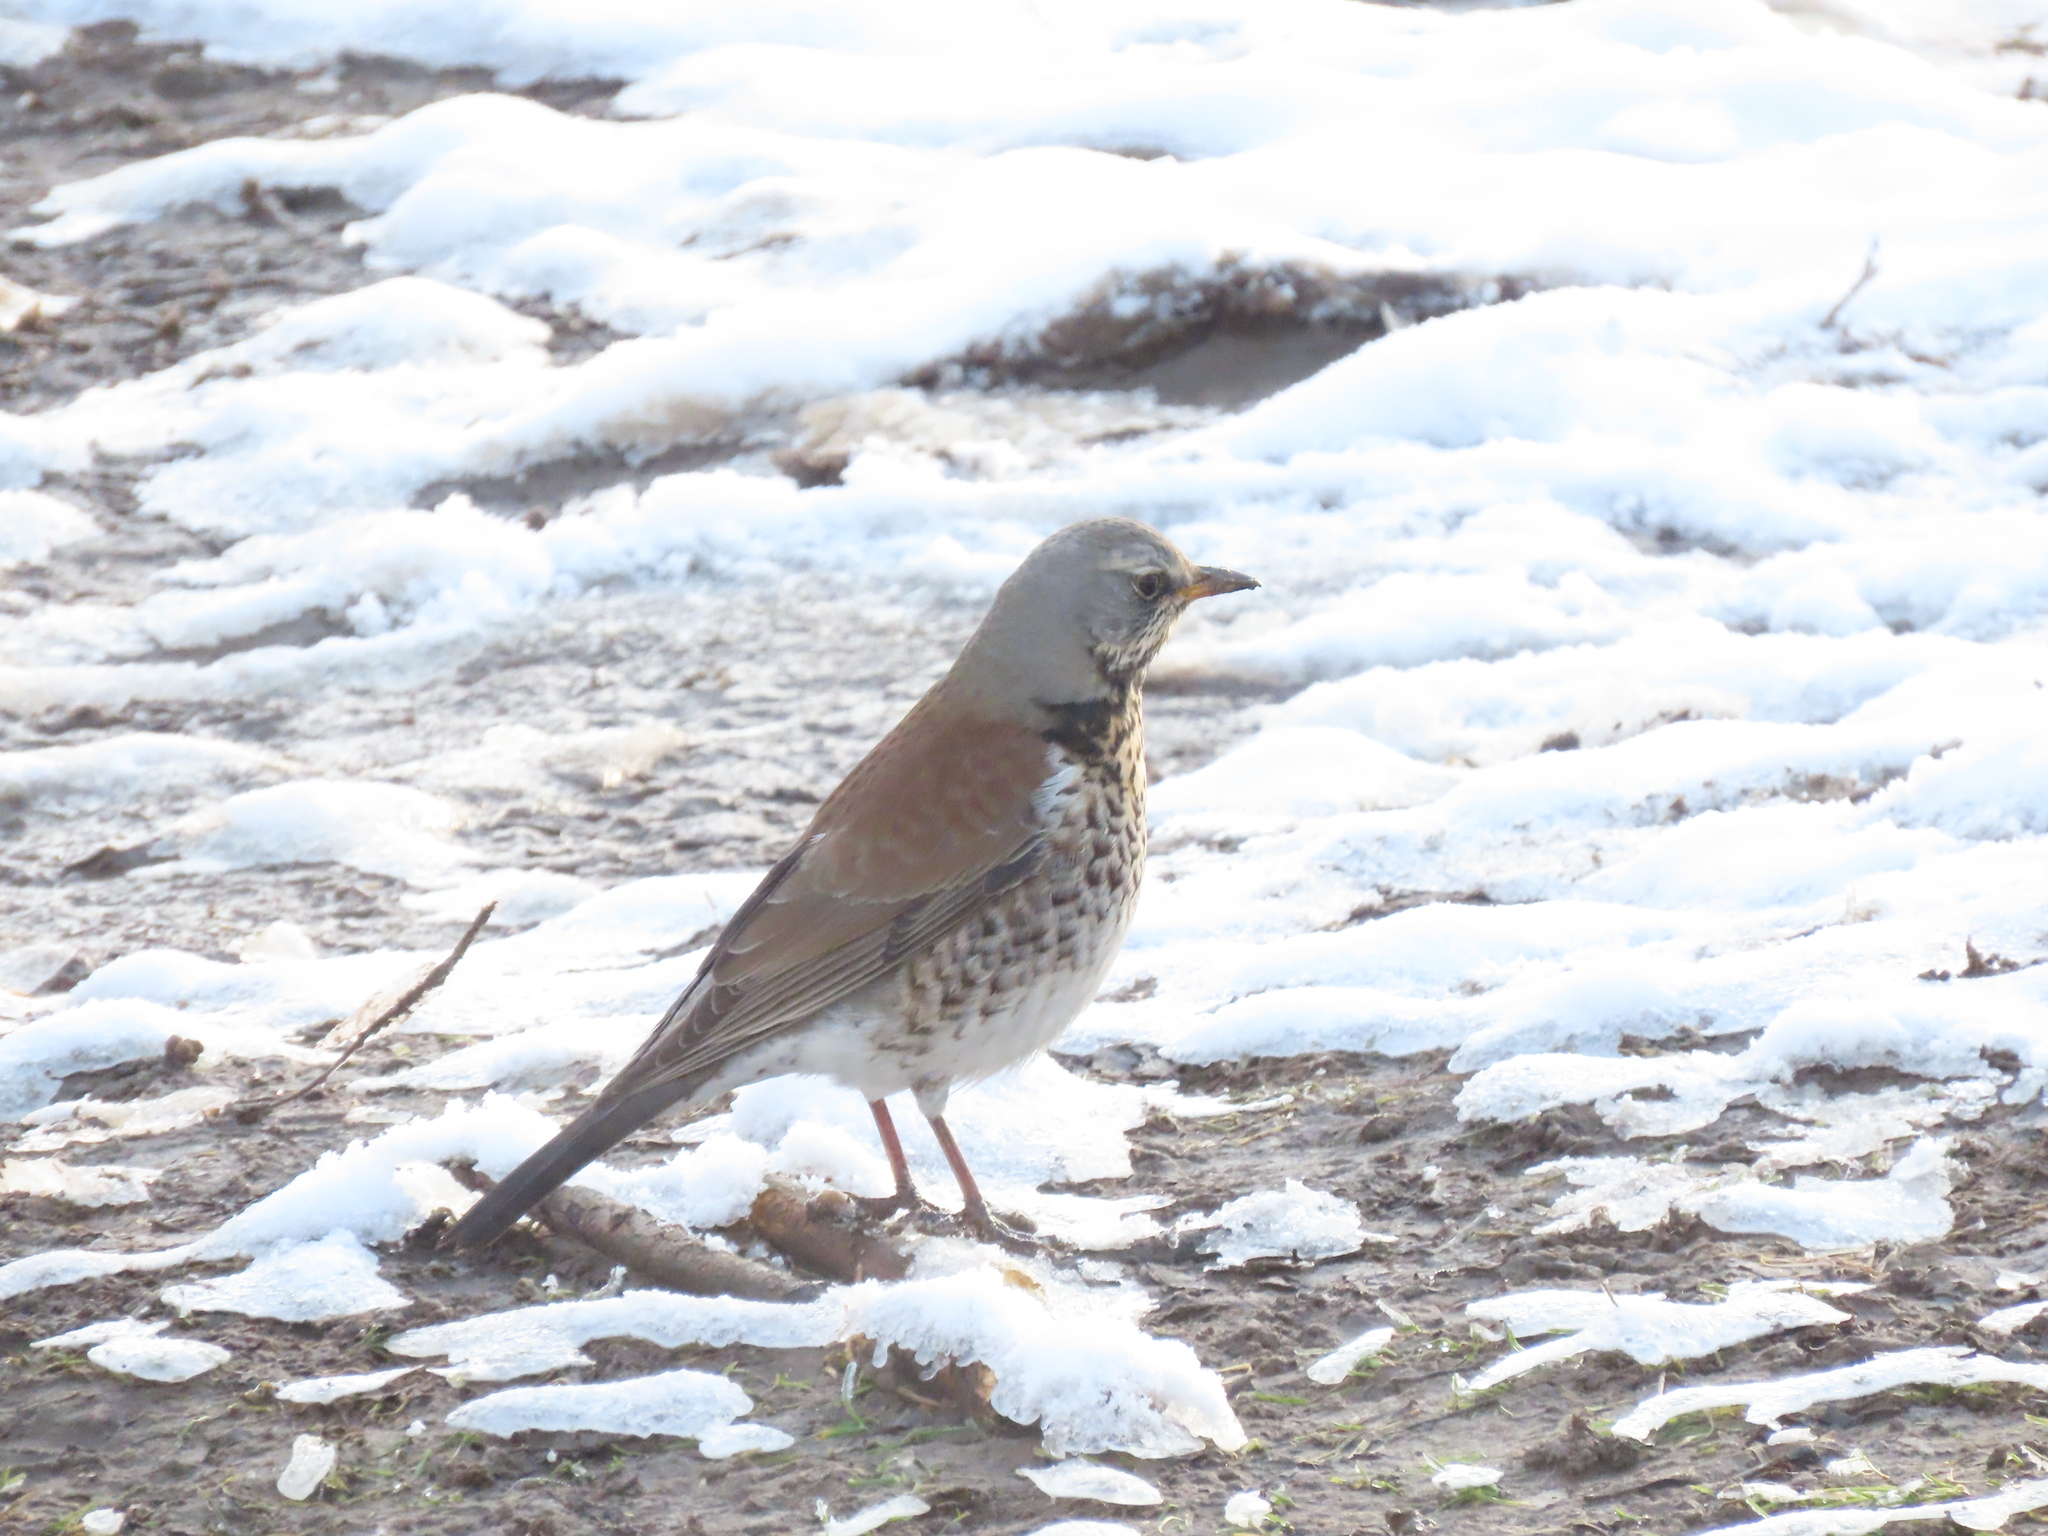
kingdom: Animalia
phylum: Chordata
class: Aves
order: Passeriformes
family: Turdidae
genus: Turdus
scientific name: Turdus pilaris
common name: Fieldfare
